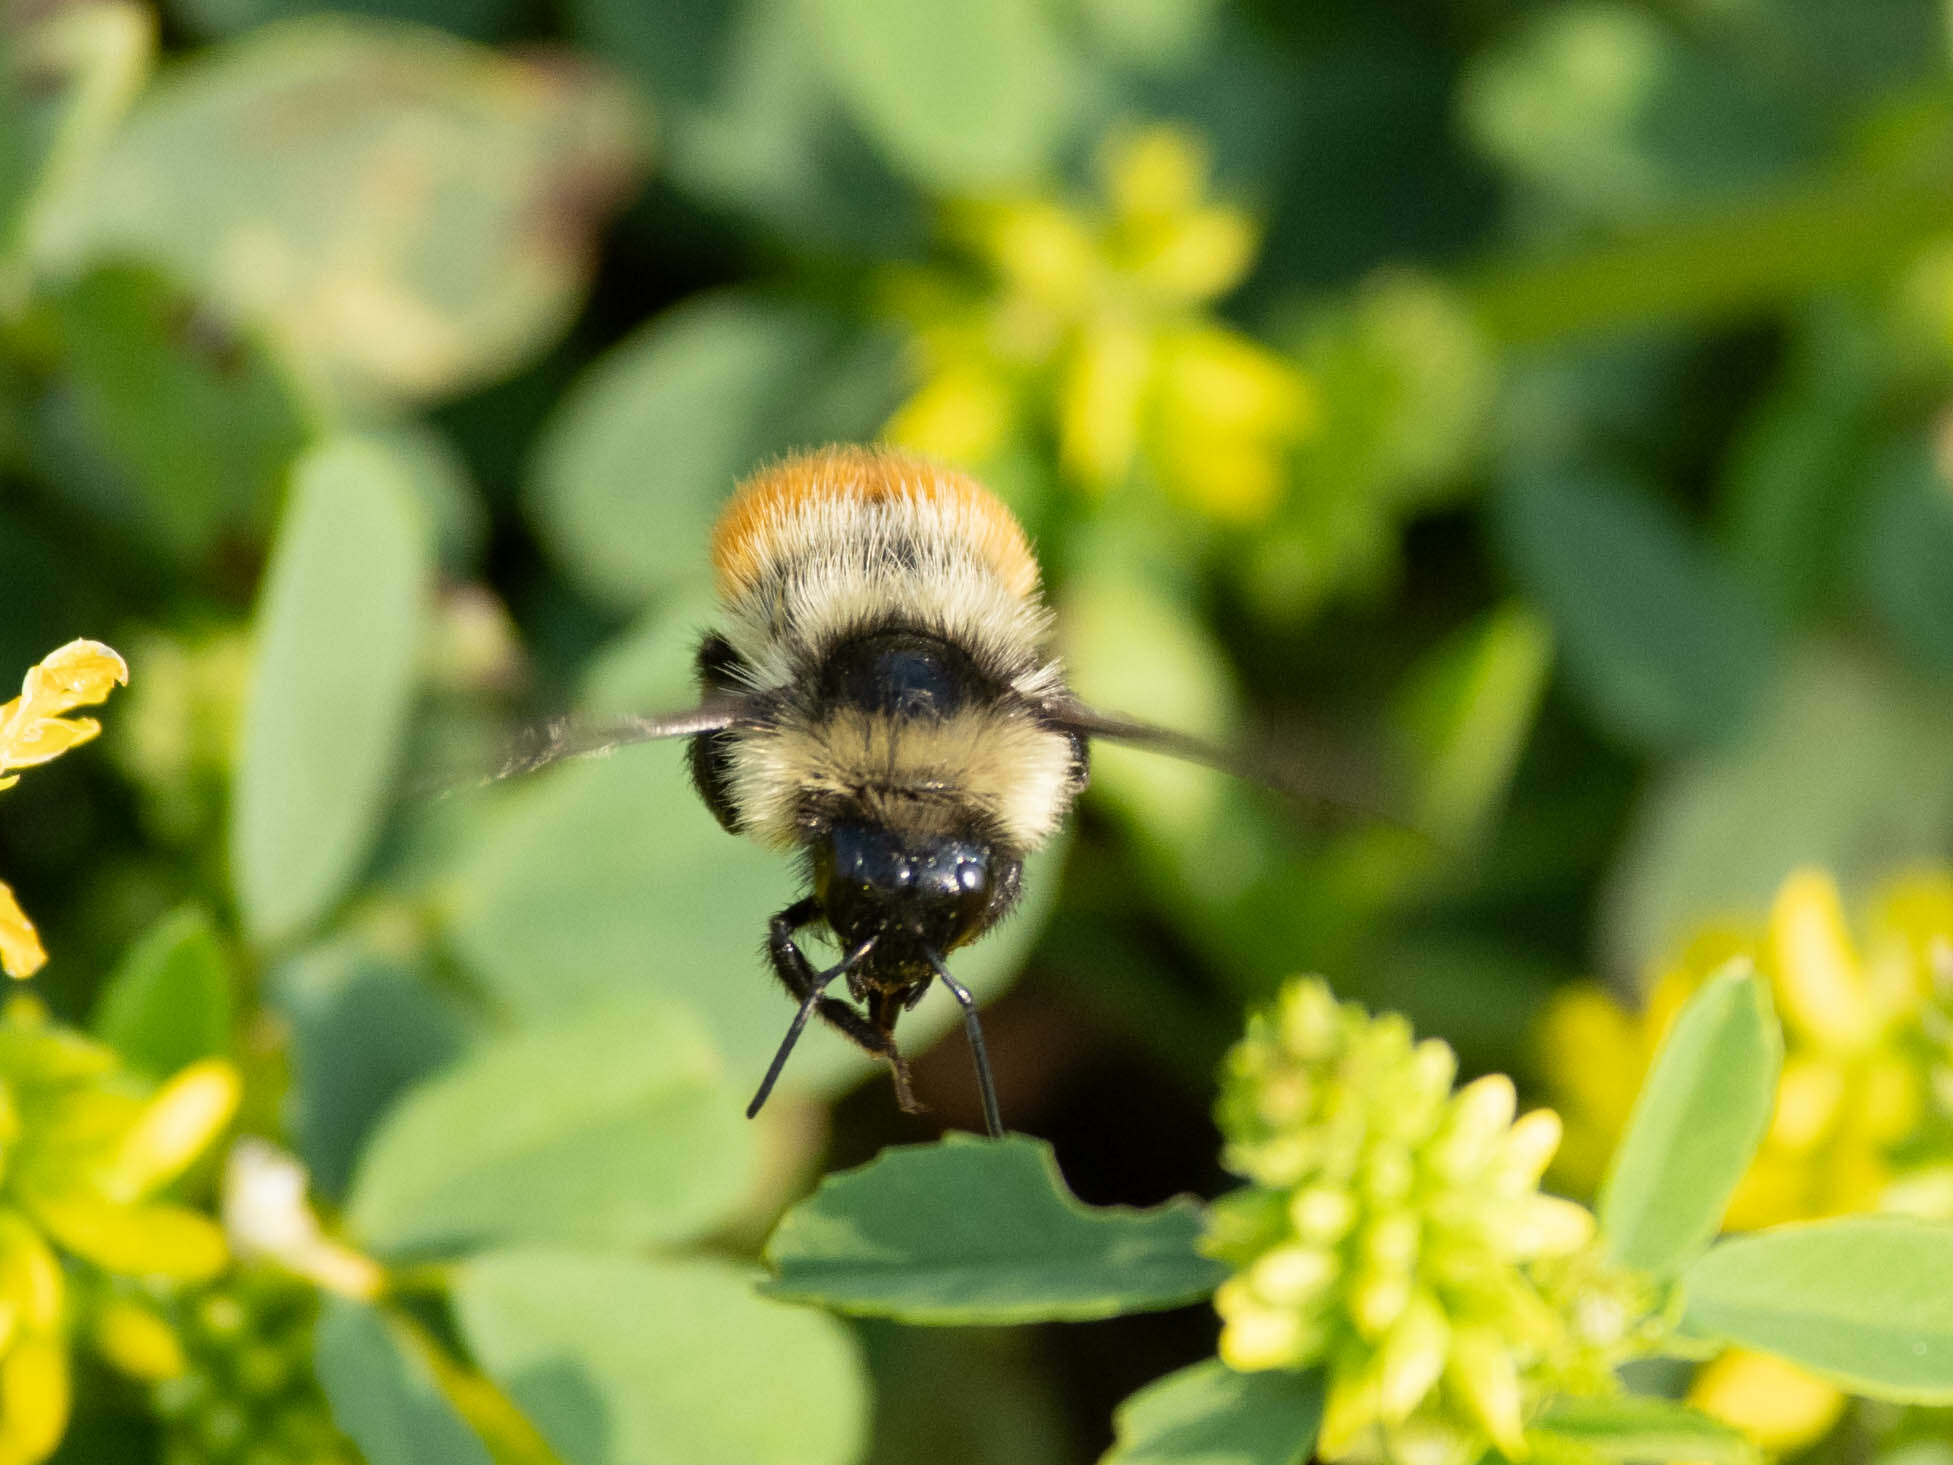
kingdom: Animalia
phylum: Arthropoda
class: Insecta
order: Hymenoptera
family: Apidae
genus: Bombus
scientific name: Bombus rufocinctus
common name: Red-belted bumble bee
